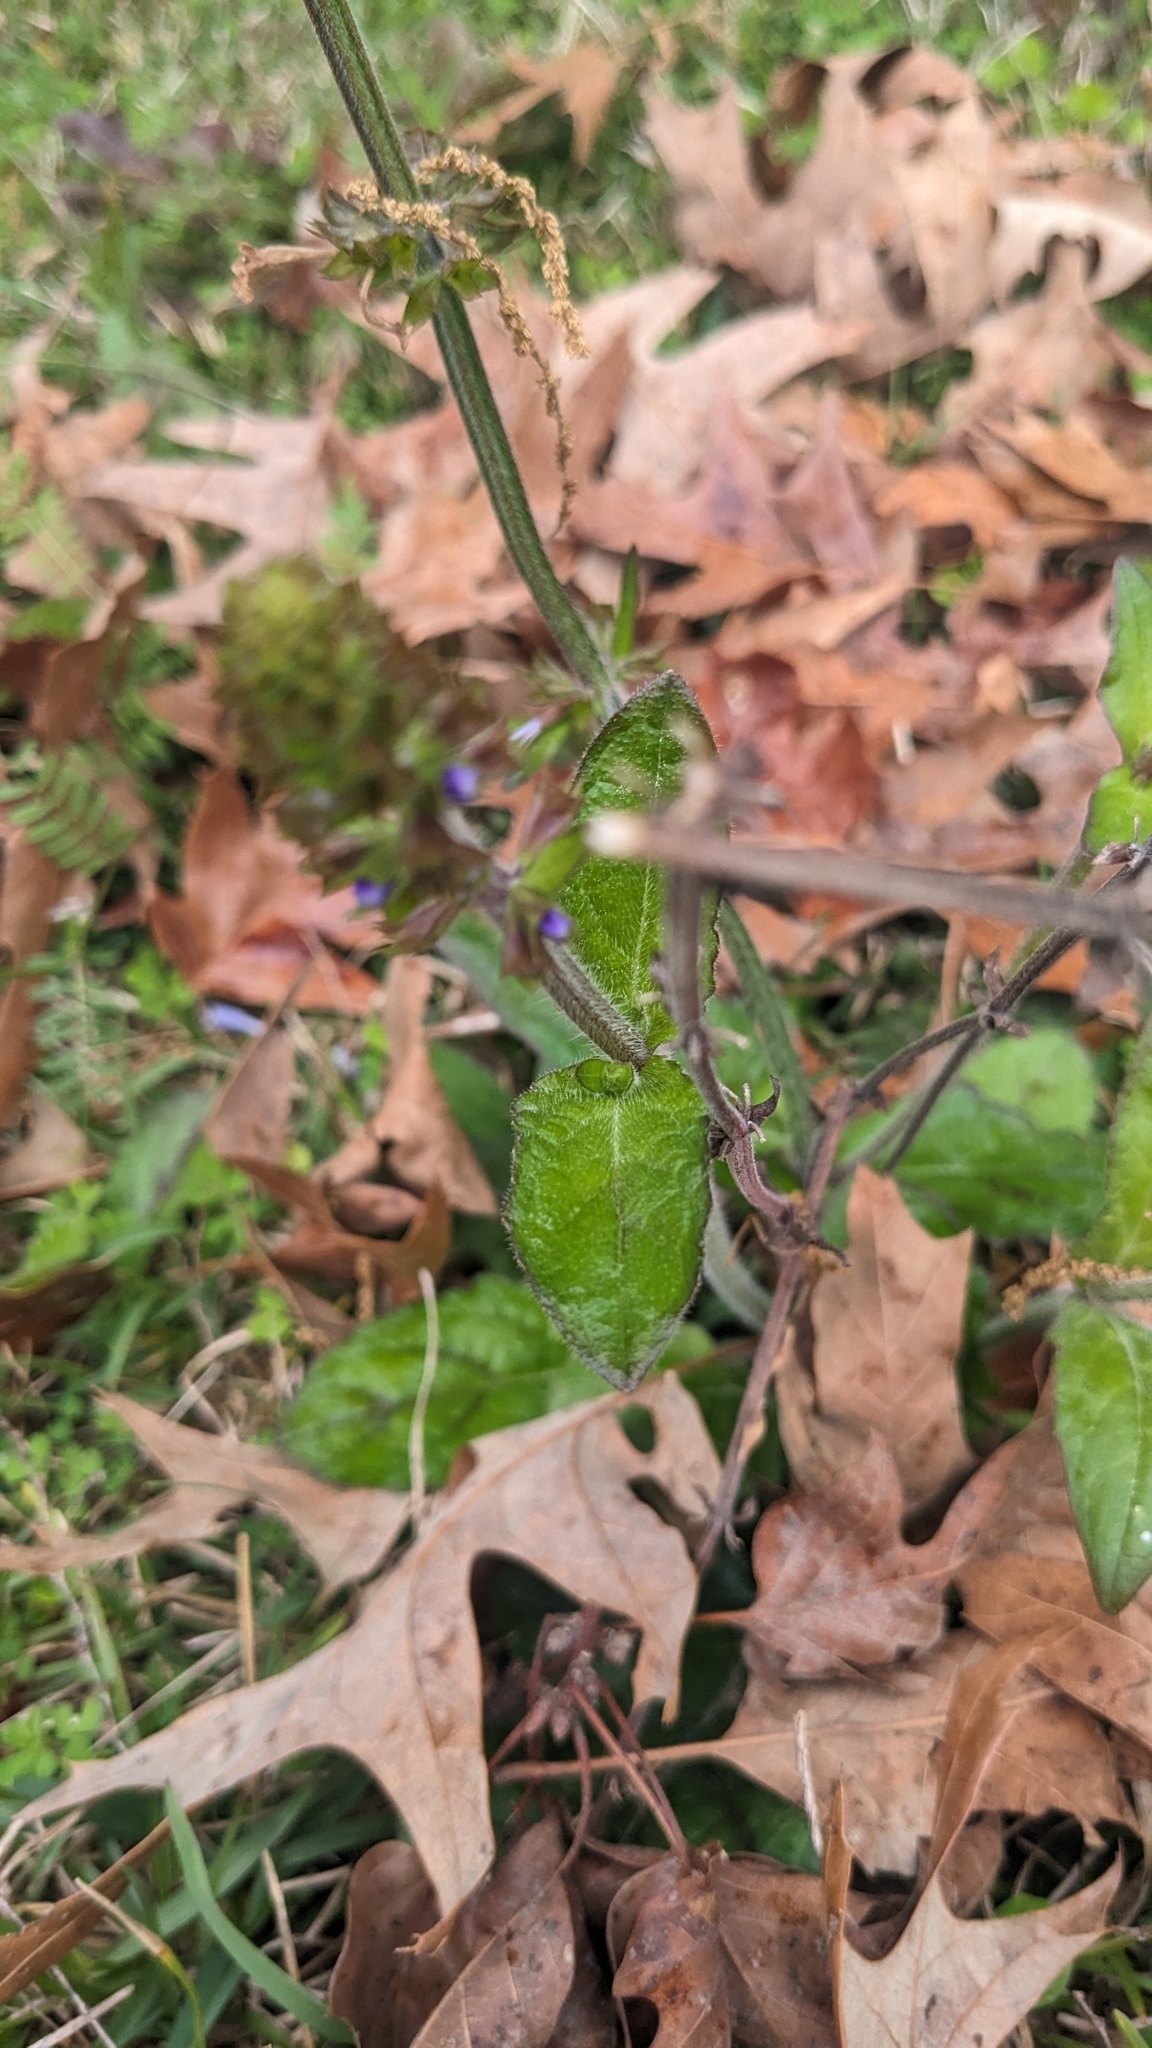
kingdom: Plantae
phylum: Tracheophyta
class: Magnoliopsida
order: Lamiales
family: Lamiaceae
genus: Salvia
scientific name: Salvia lyrata
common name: Cancerweed
